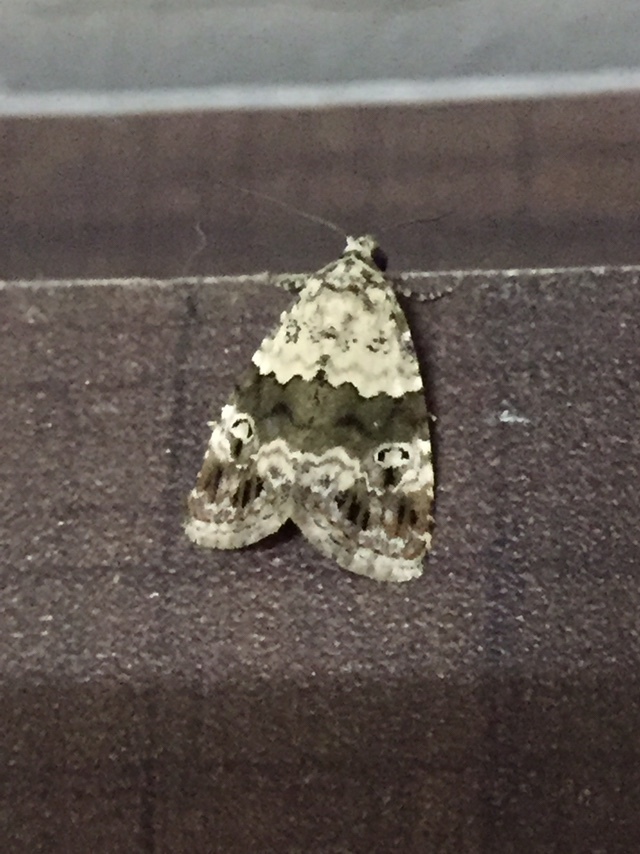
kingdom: Animalia
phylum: Arthropoda
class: Insecta
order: Lepidoptera
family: Noctuidae
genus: Maliattha
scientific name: Maliattha signifera
